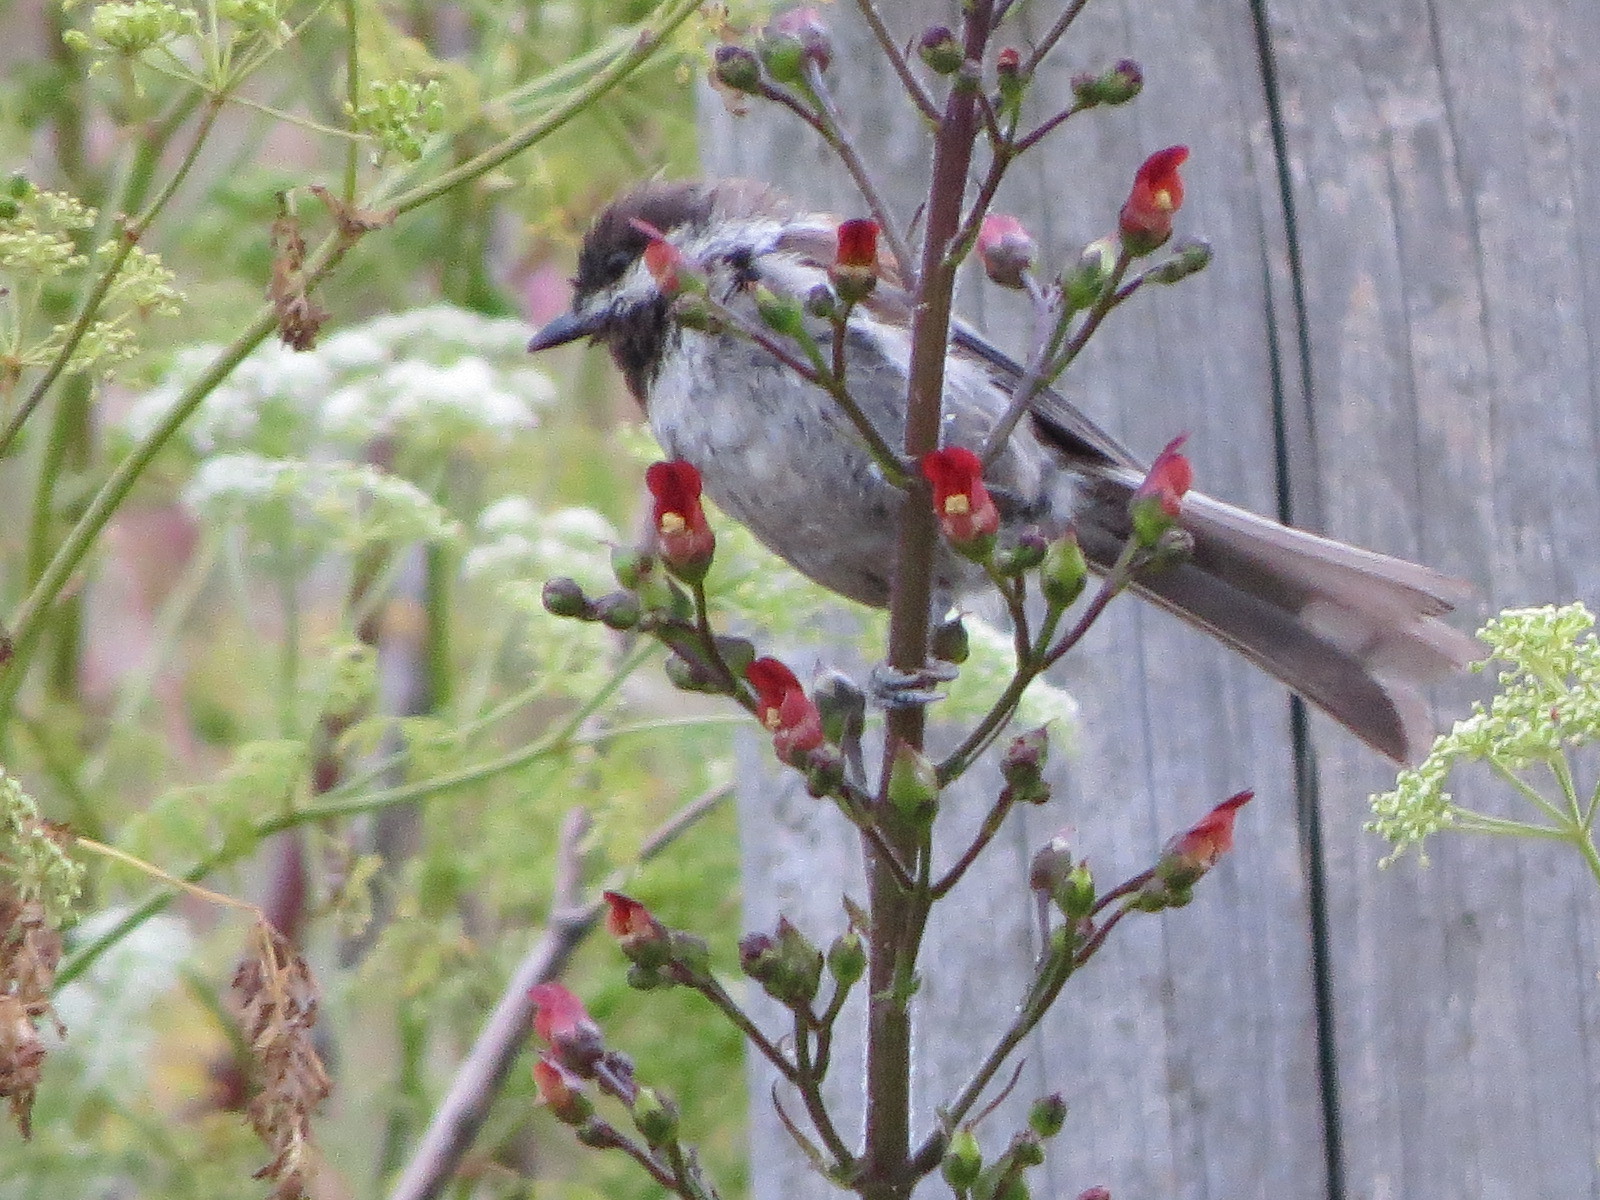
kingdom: Animalia
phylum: Chordata
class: Aves
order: Passeriformes
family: Paridae
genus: Poecile
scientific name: Poecile rufescens
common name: Chestnut-backed chickadee
